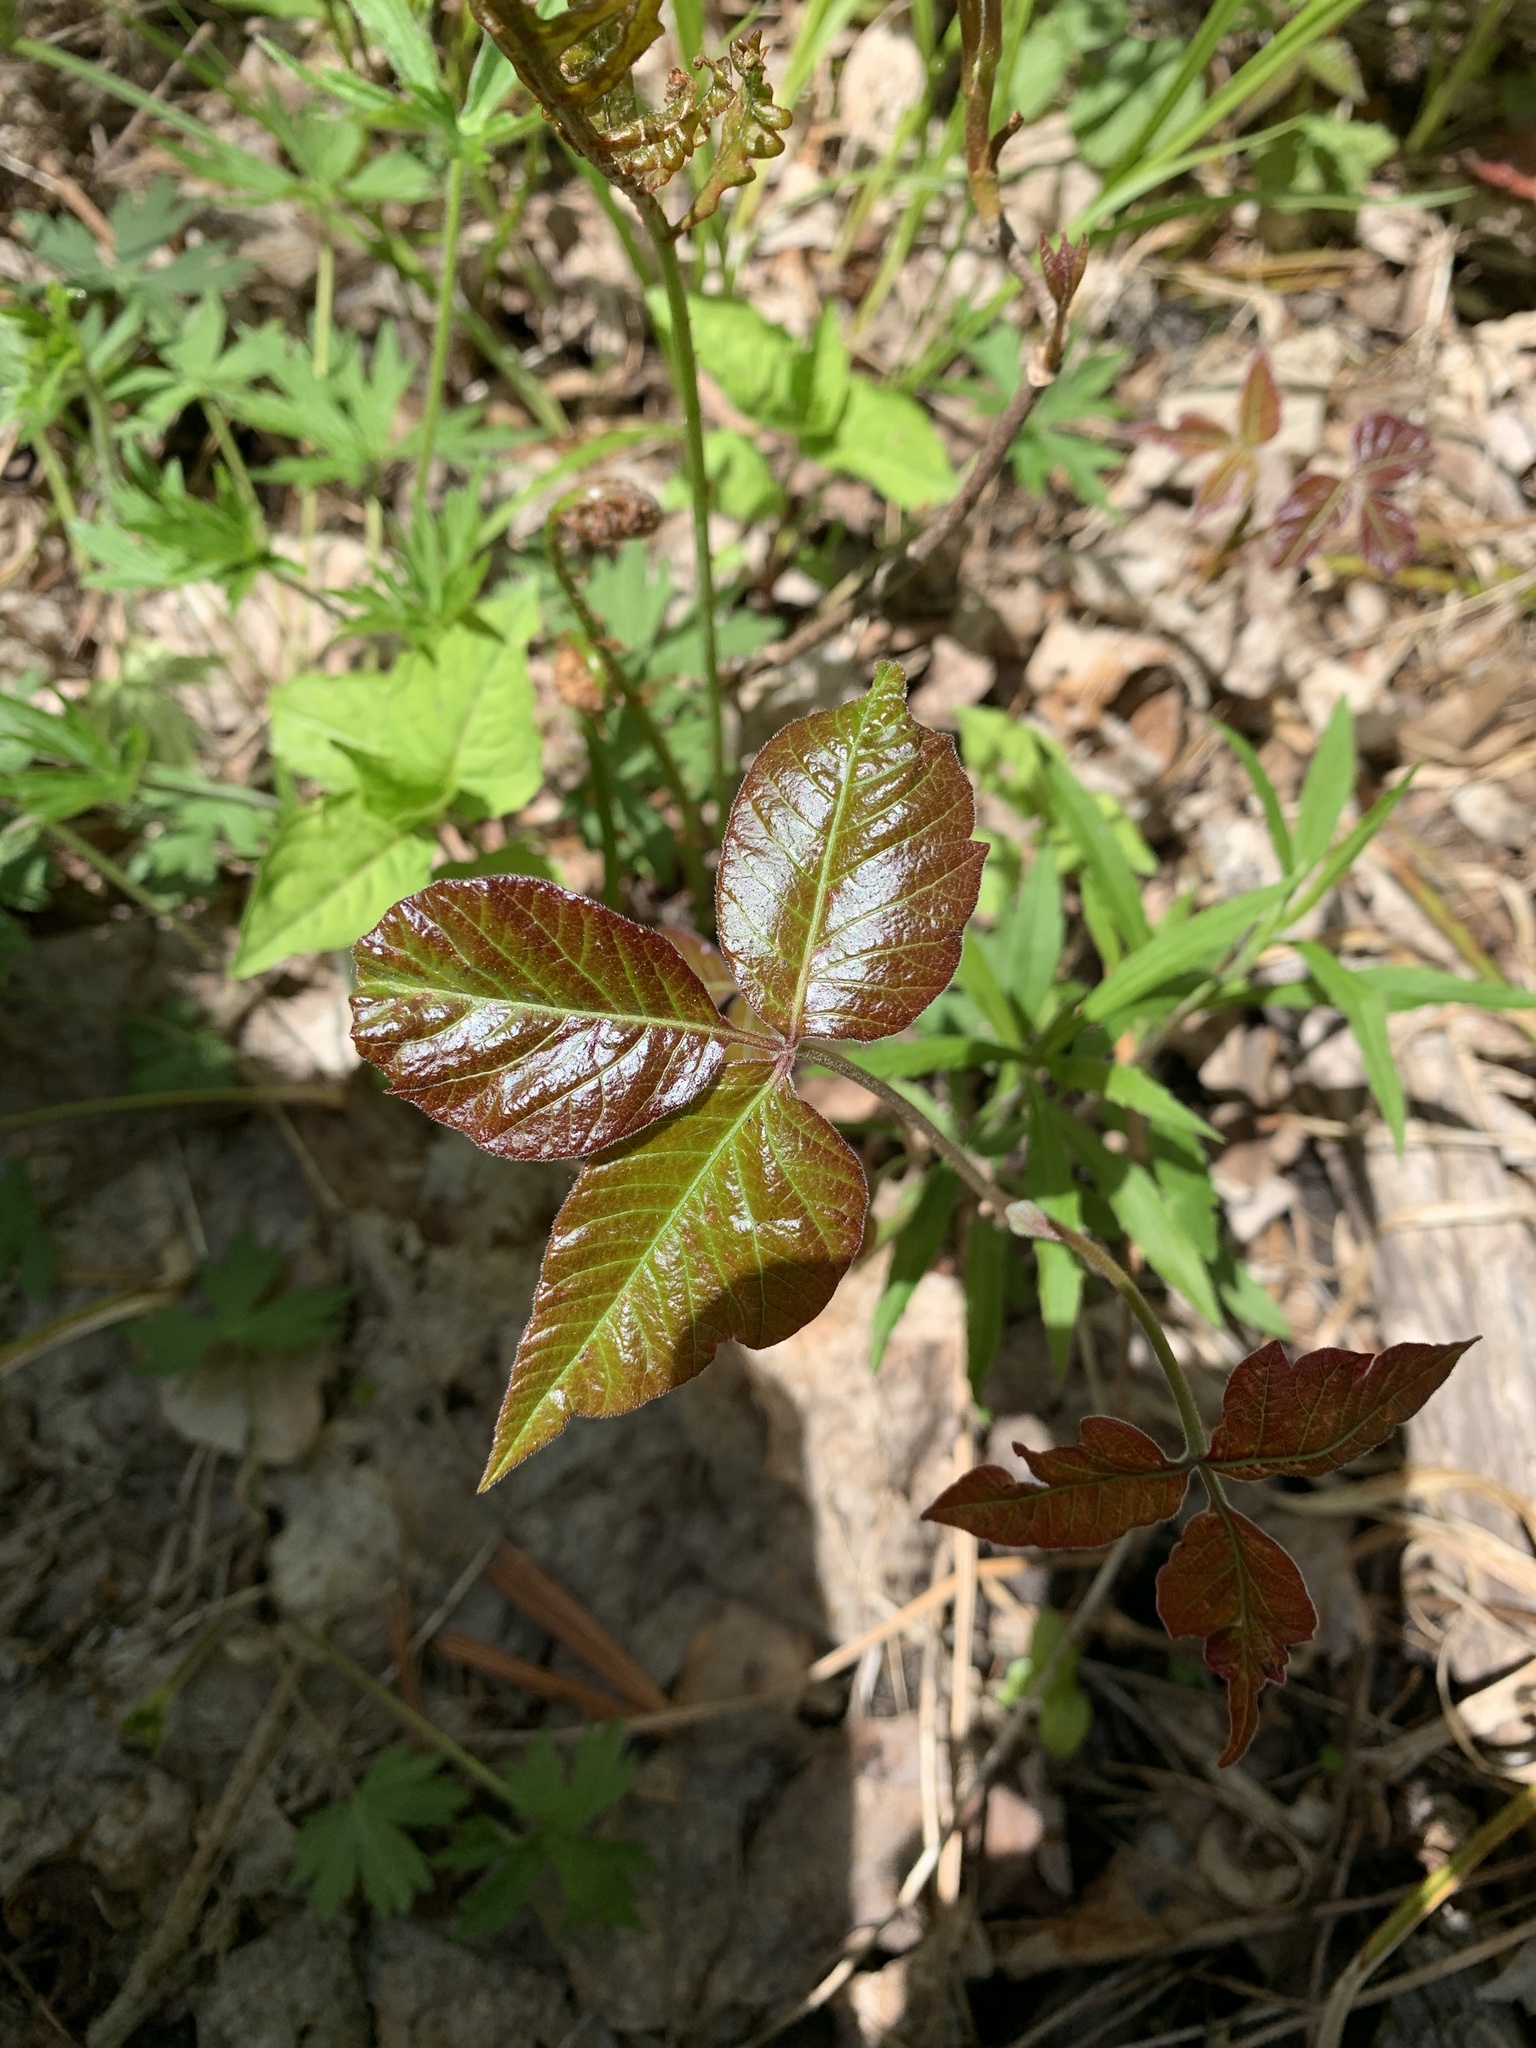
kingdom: Plantae
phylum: Tracheophyta
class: Magnoliopsida
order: Sapindales
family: Anacardiaceae
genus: Toxicodendron
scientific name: Toxicodendron rydbergii
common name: Rydberg's poison-ivy
